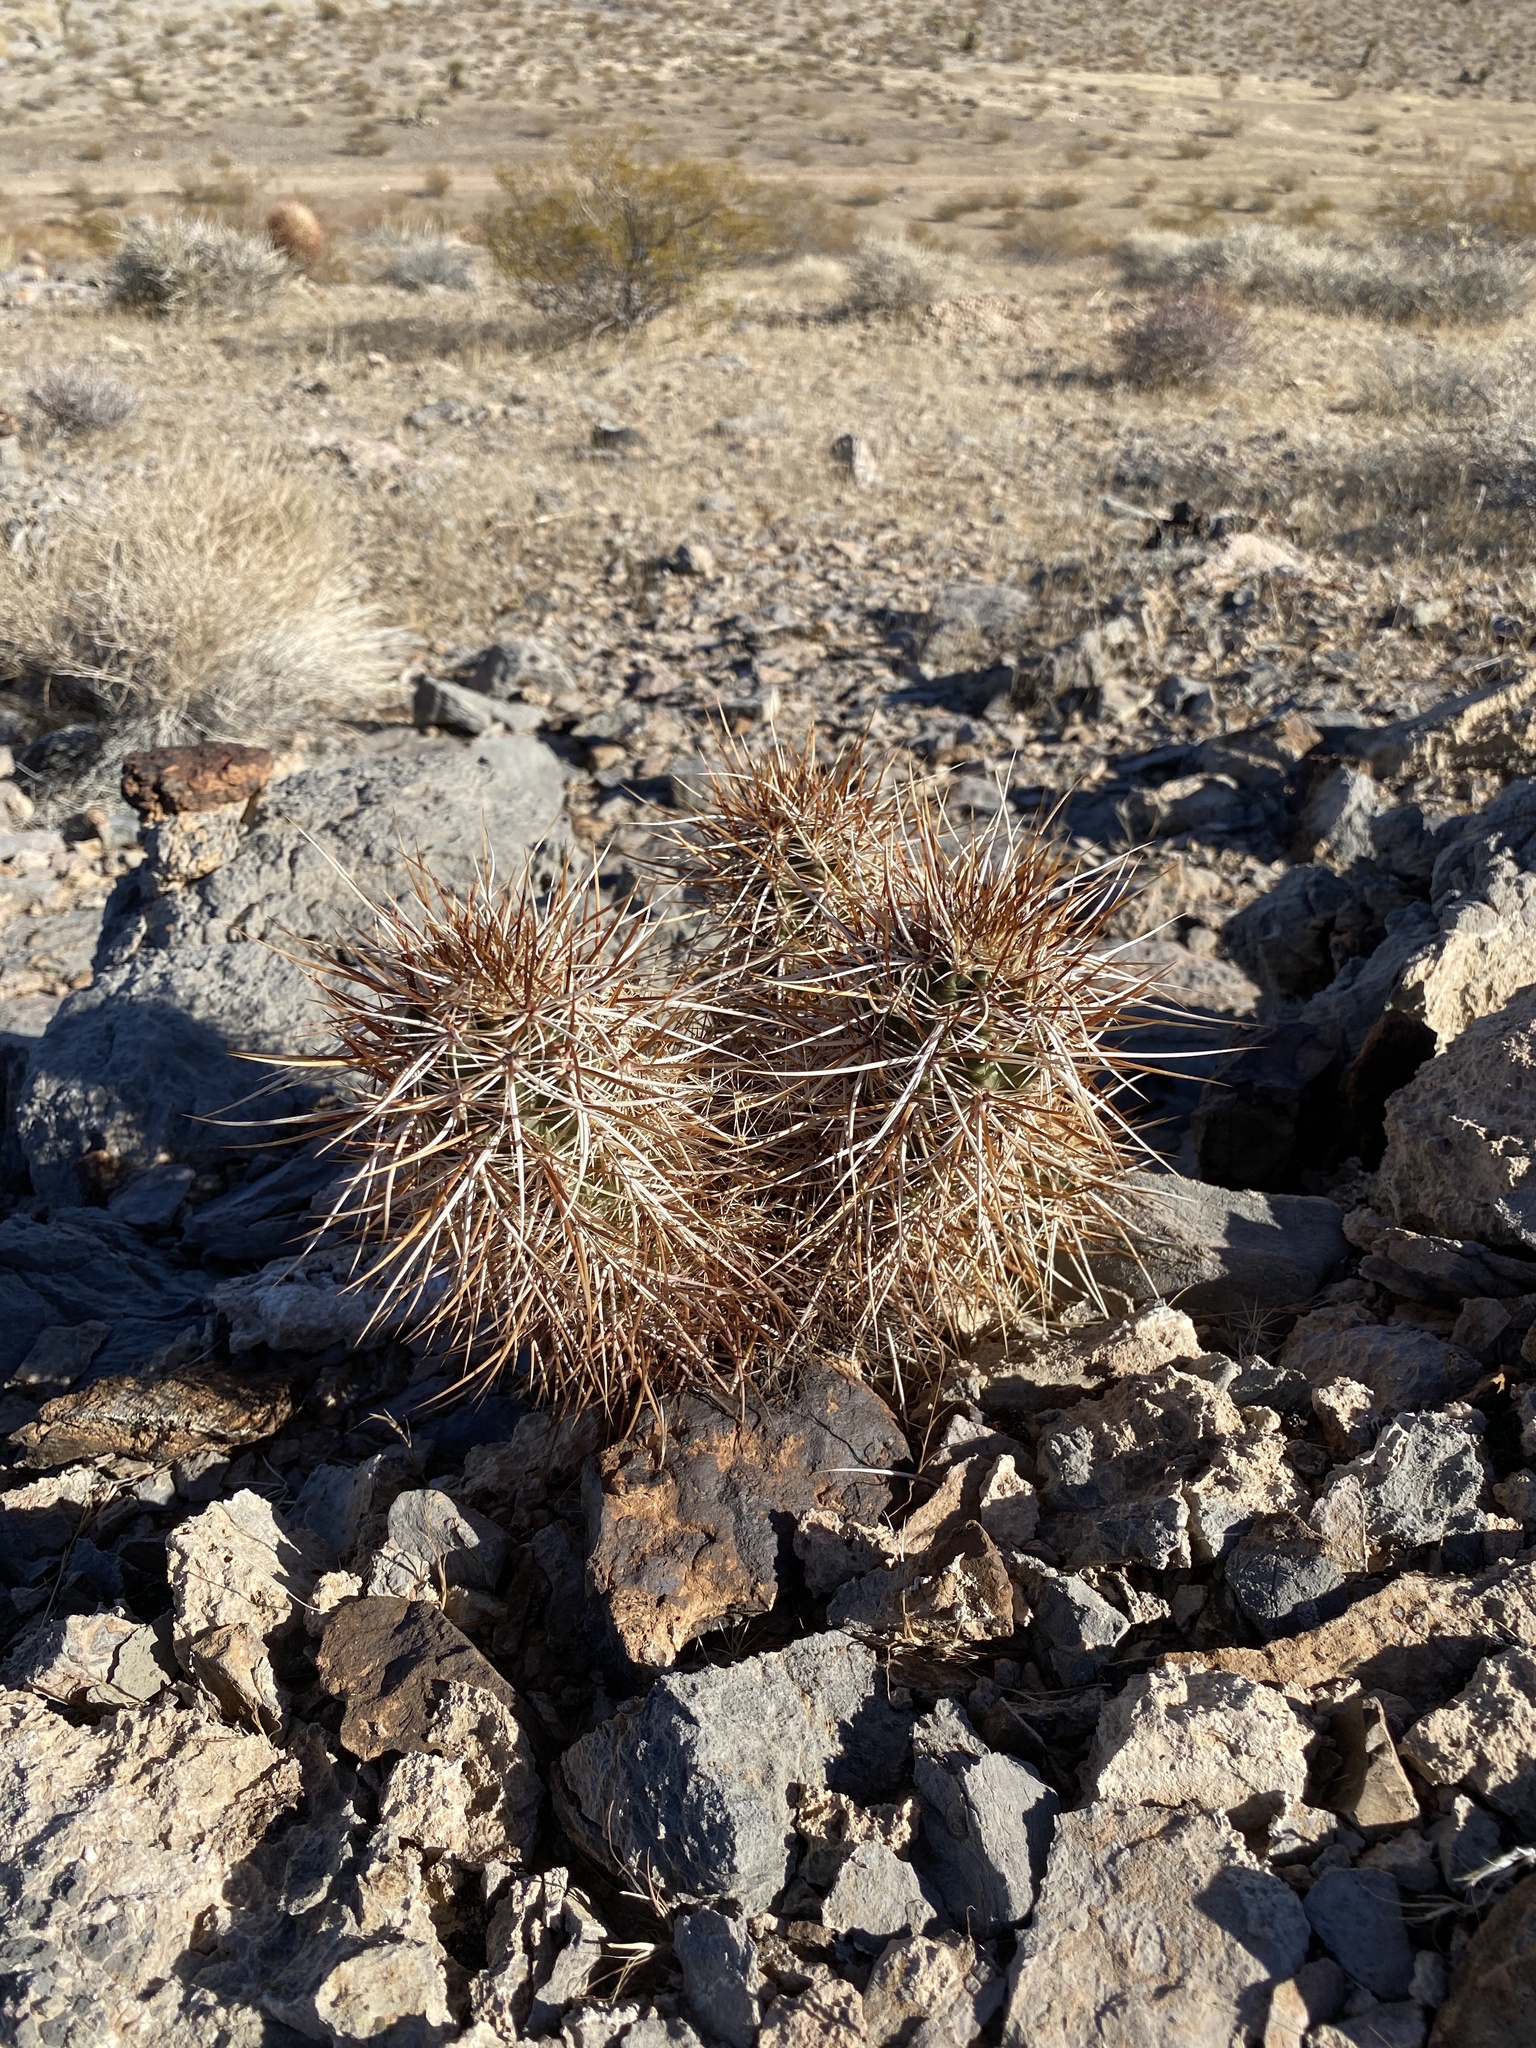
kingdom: Plantae
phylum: Tracheophyta
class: Magnoliopsida
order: Caryophyllales
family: Cactaceae
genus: Echinocereus
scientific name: Echinocereus engelmannii
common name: Engelmann's hedgehog cactus
